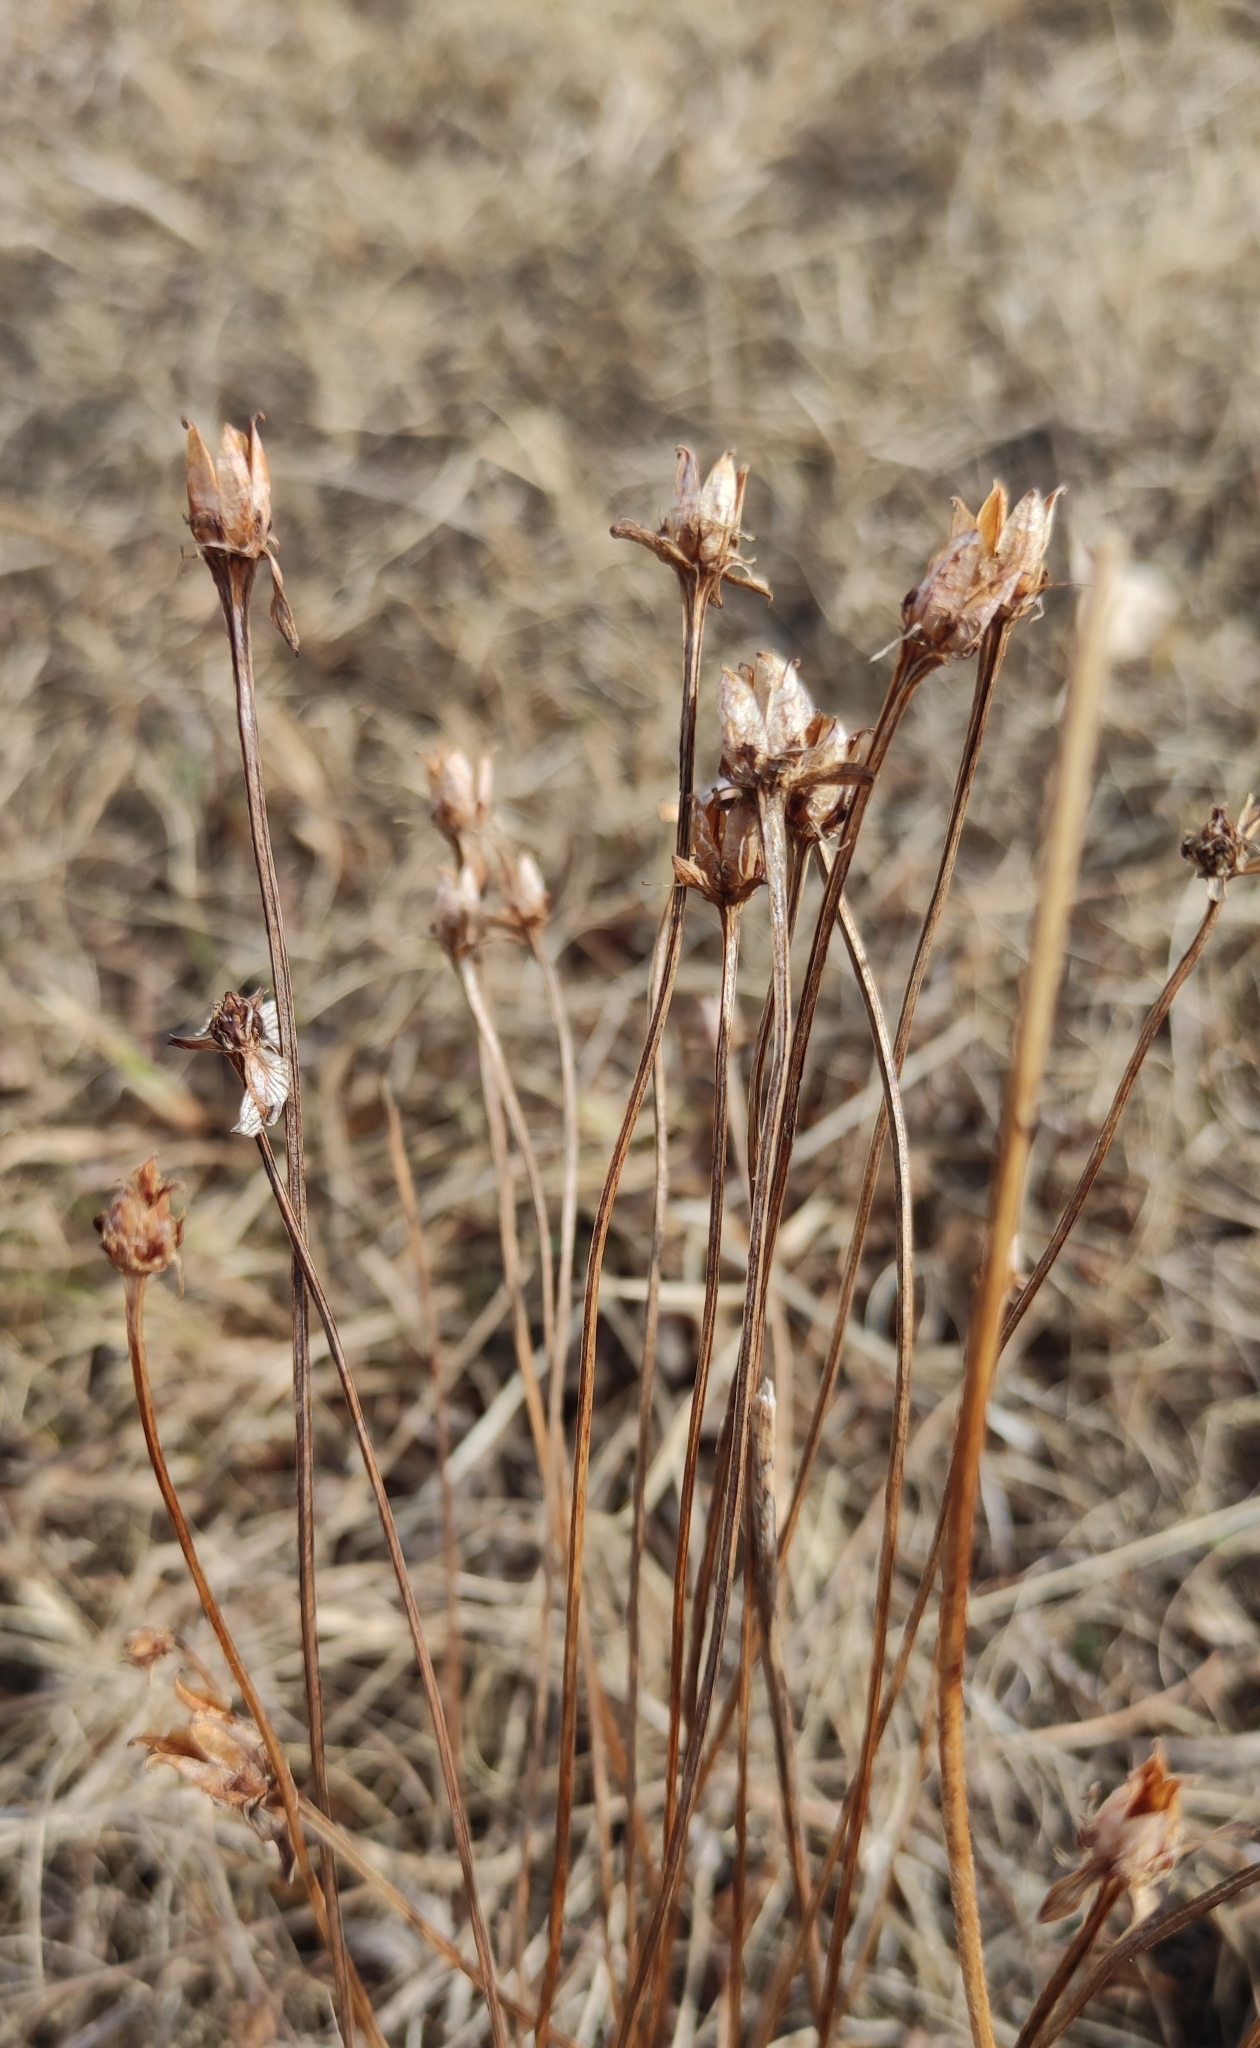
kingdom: Plantae
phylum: Tracheophyta
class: Magnoliopsida
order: Celastrales
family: Parnassiaceae
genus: Parnassia
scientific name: Parnassia palustris
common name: Grass-of-parnassus
